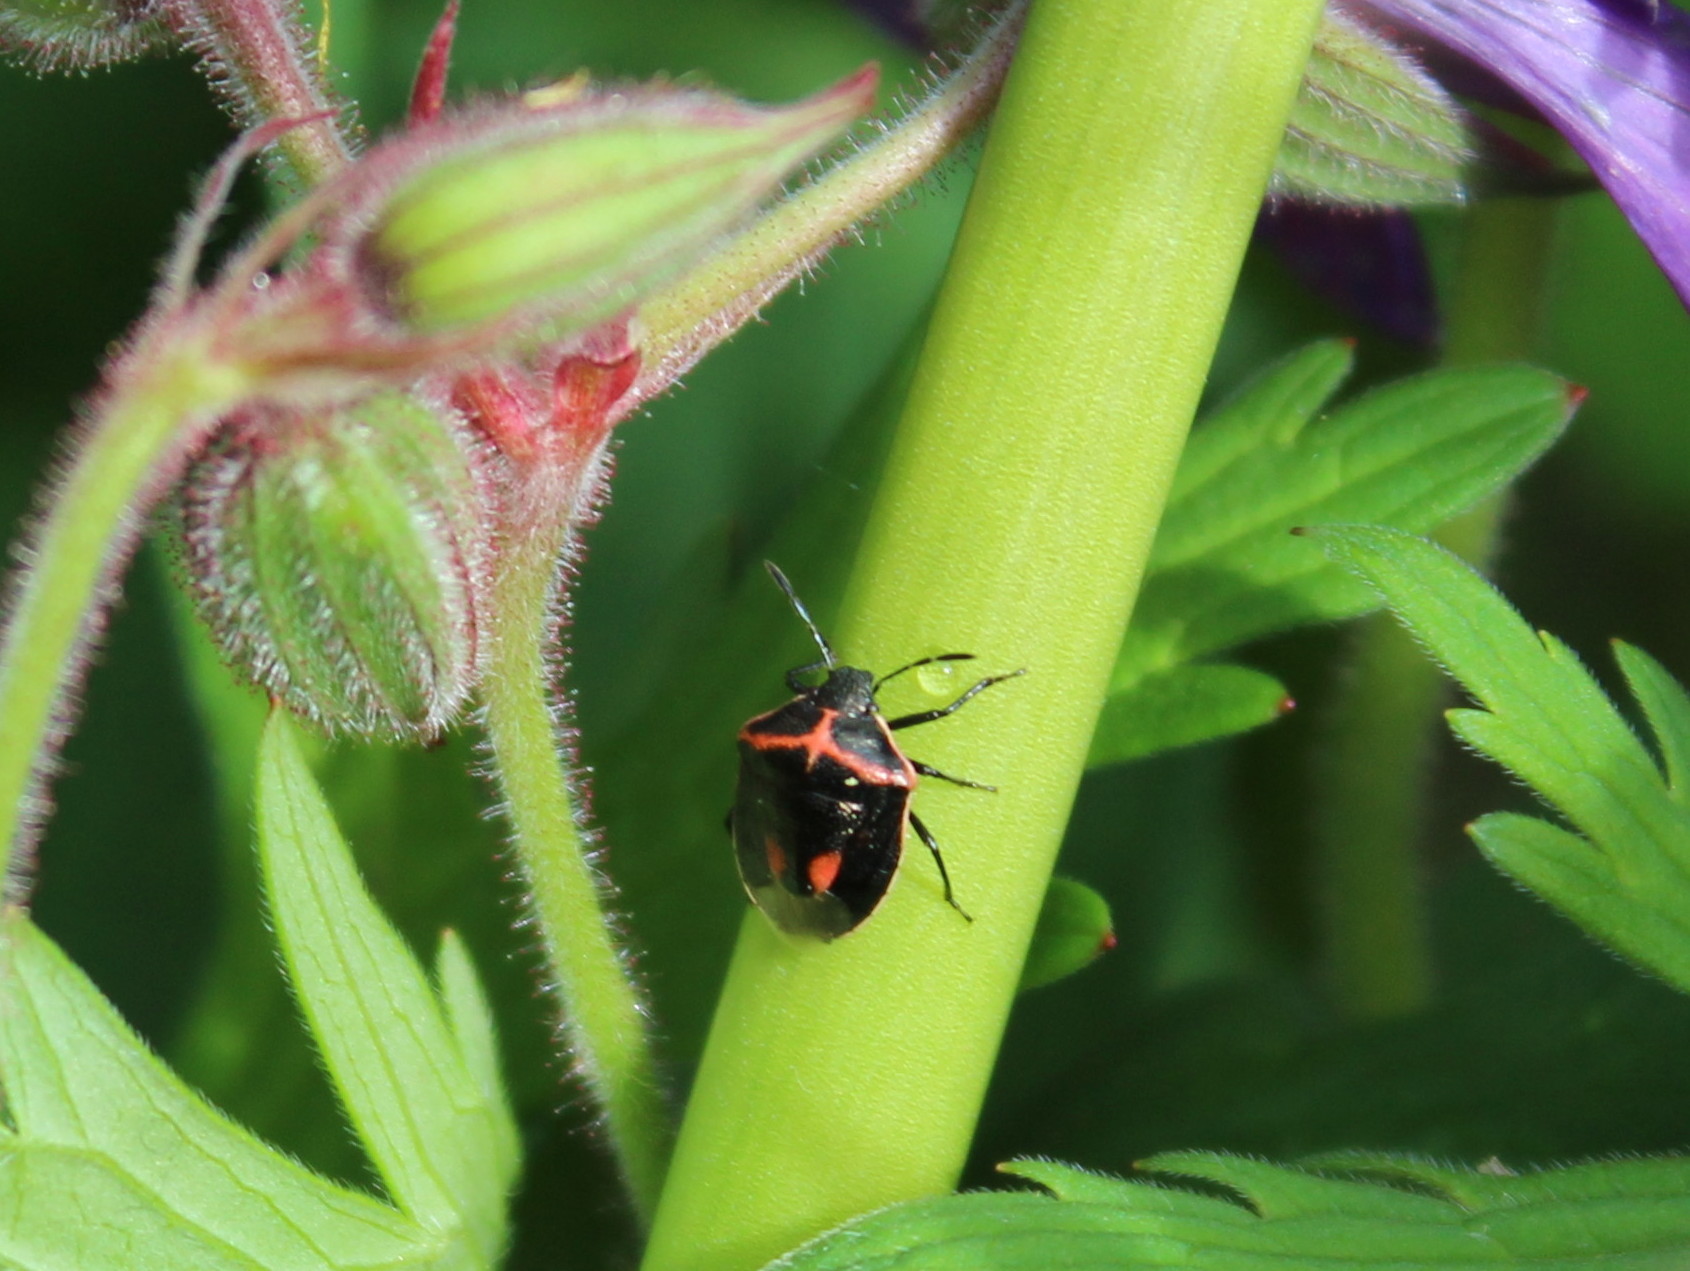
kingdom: Animalia
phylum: Arthropoda
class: Insecta
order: Hemiptera
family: Pentatomidae
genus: Cosmopepla
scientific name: Cosmopepla lintneriana
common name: Twice-stabbed stink bug
